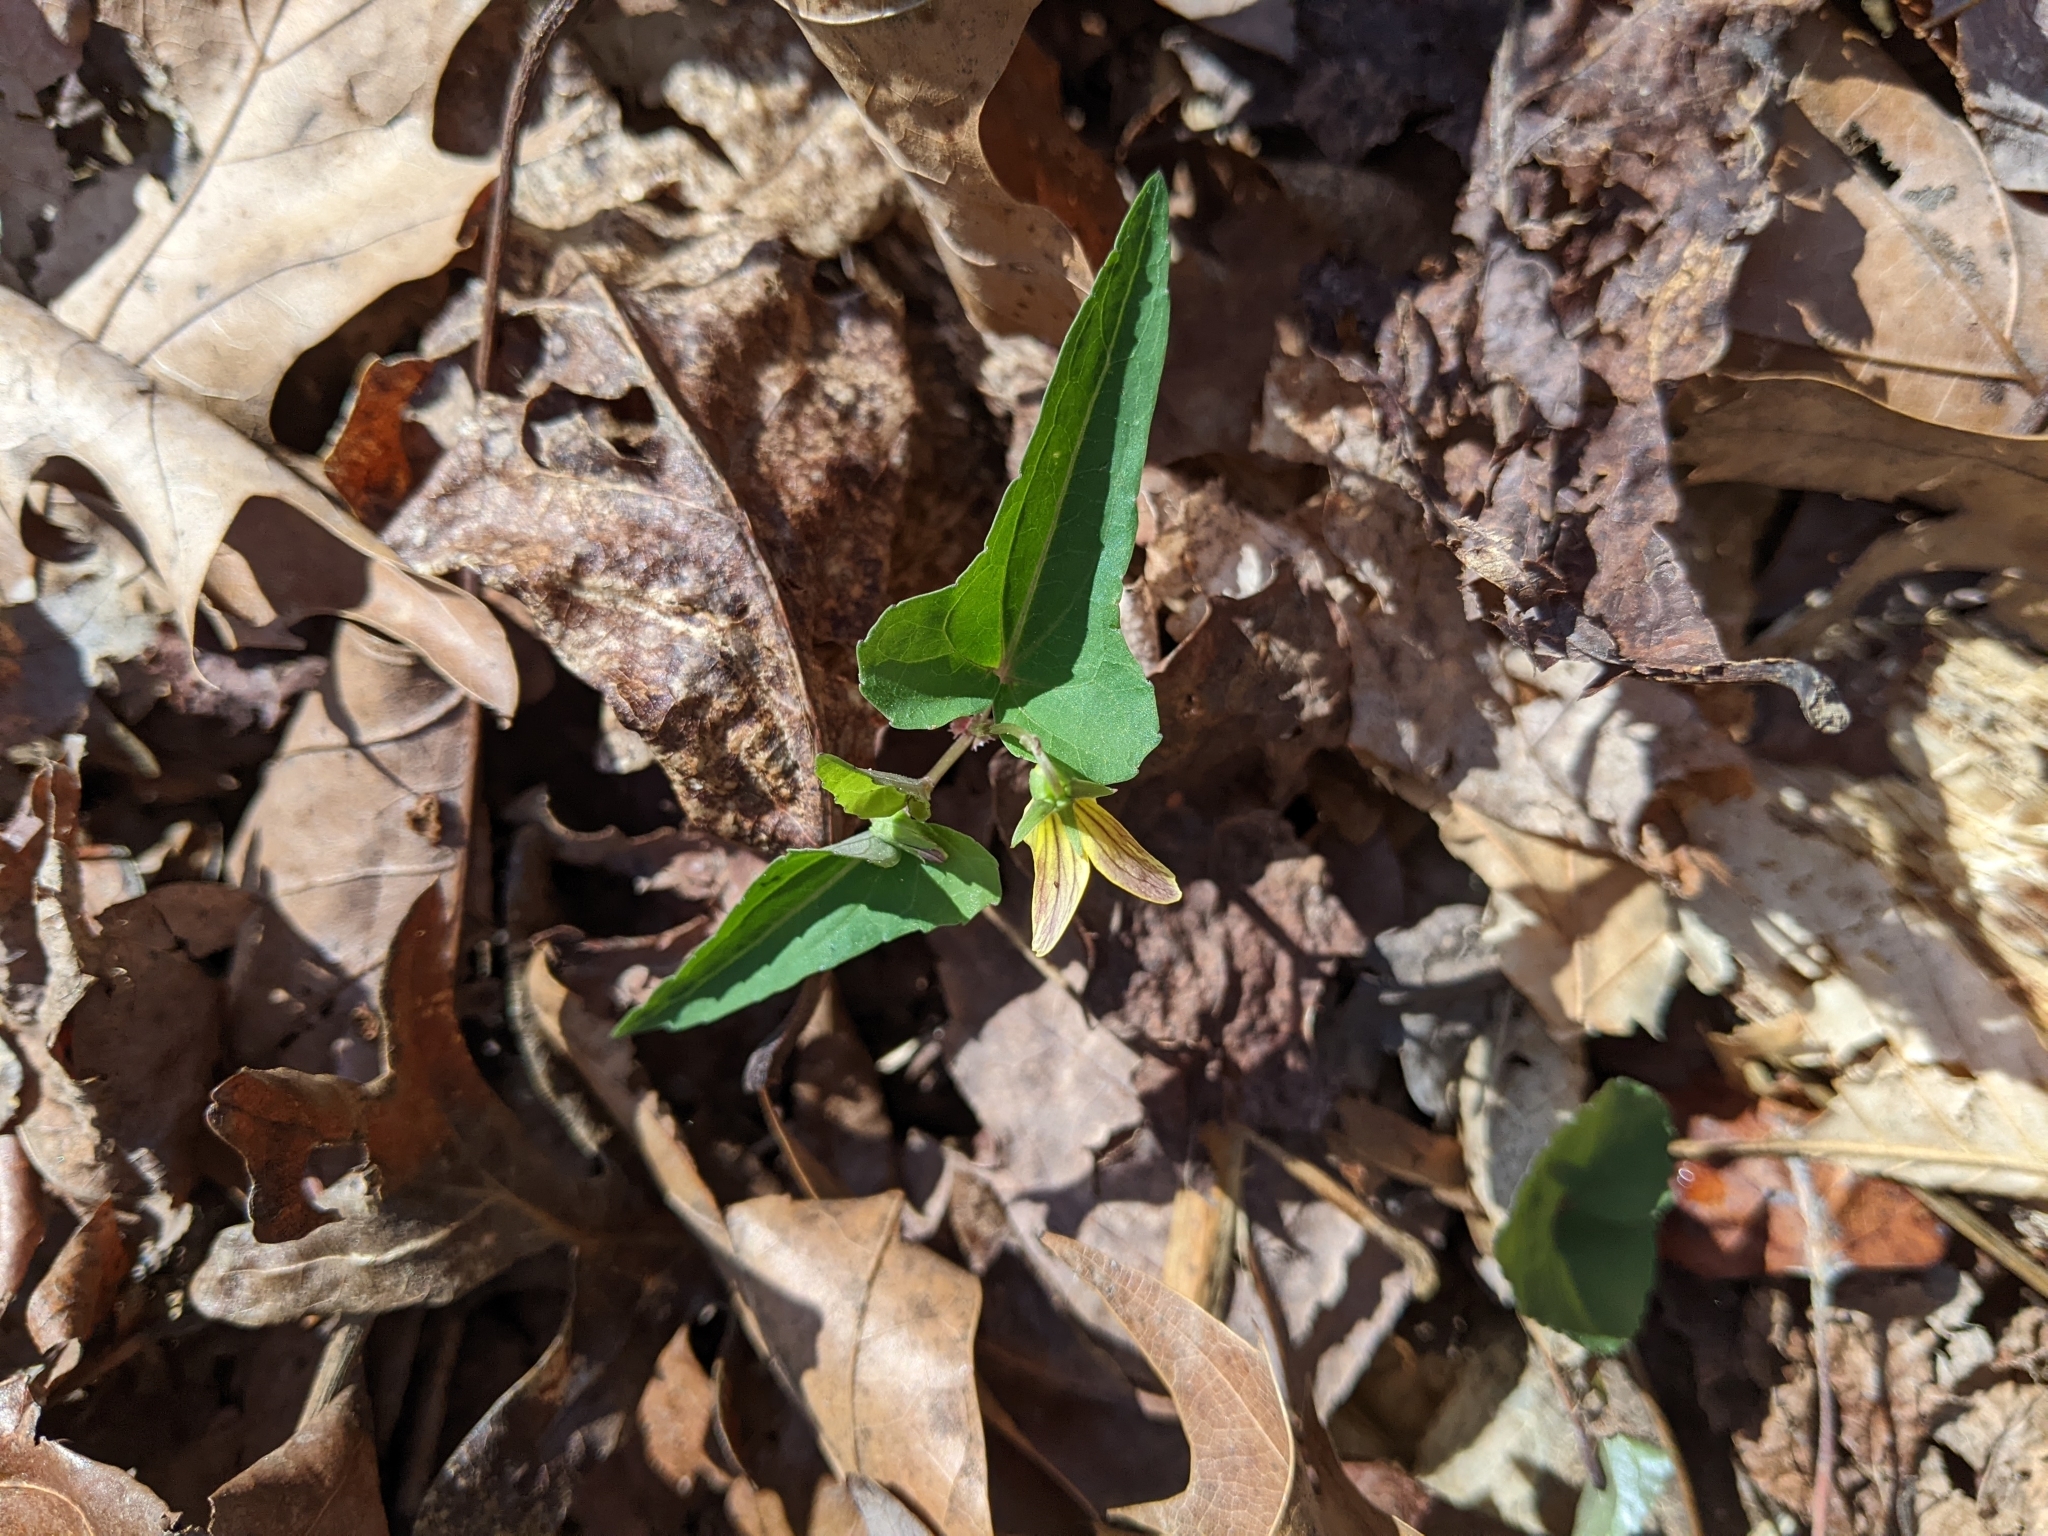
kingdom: Plantae
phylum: Tracheophyta
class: Magnoliopsida
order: Malpighiales
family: Violaceae
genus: Viola
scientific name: Viola hastata
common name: Spear-leaf violet
